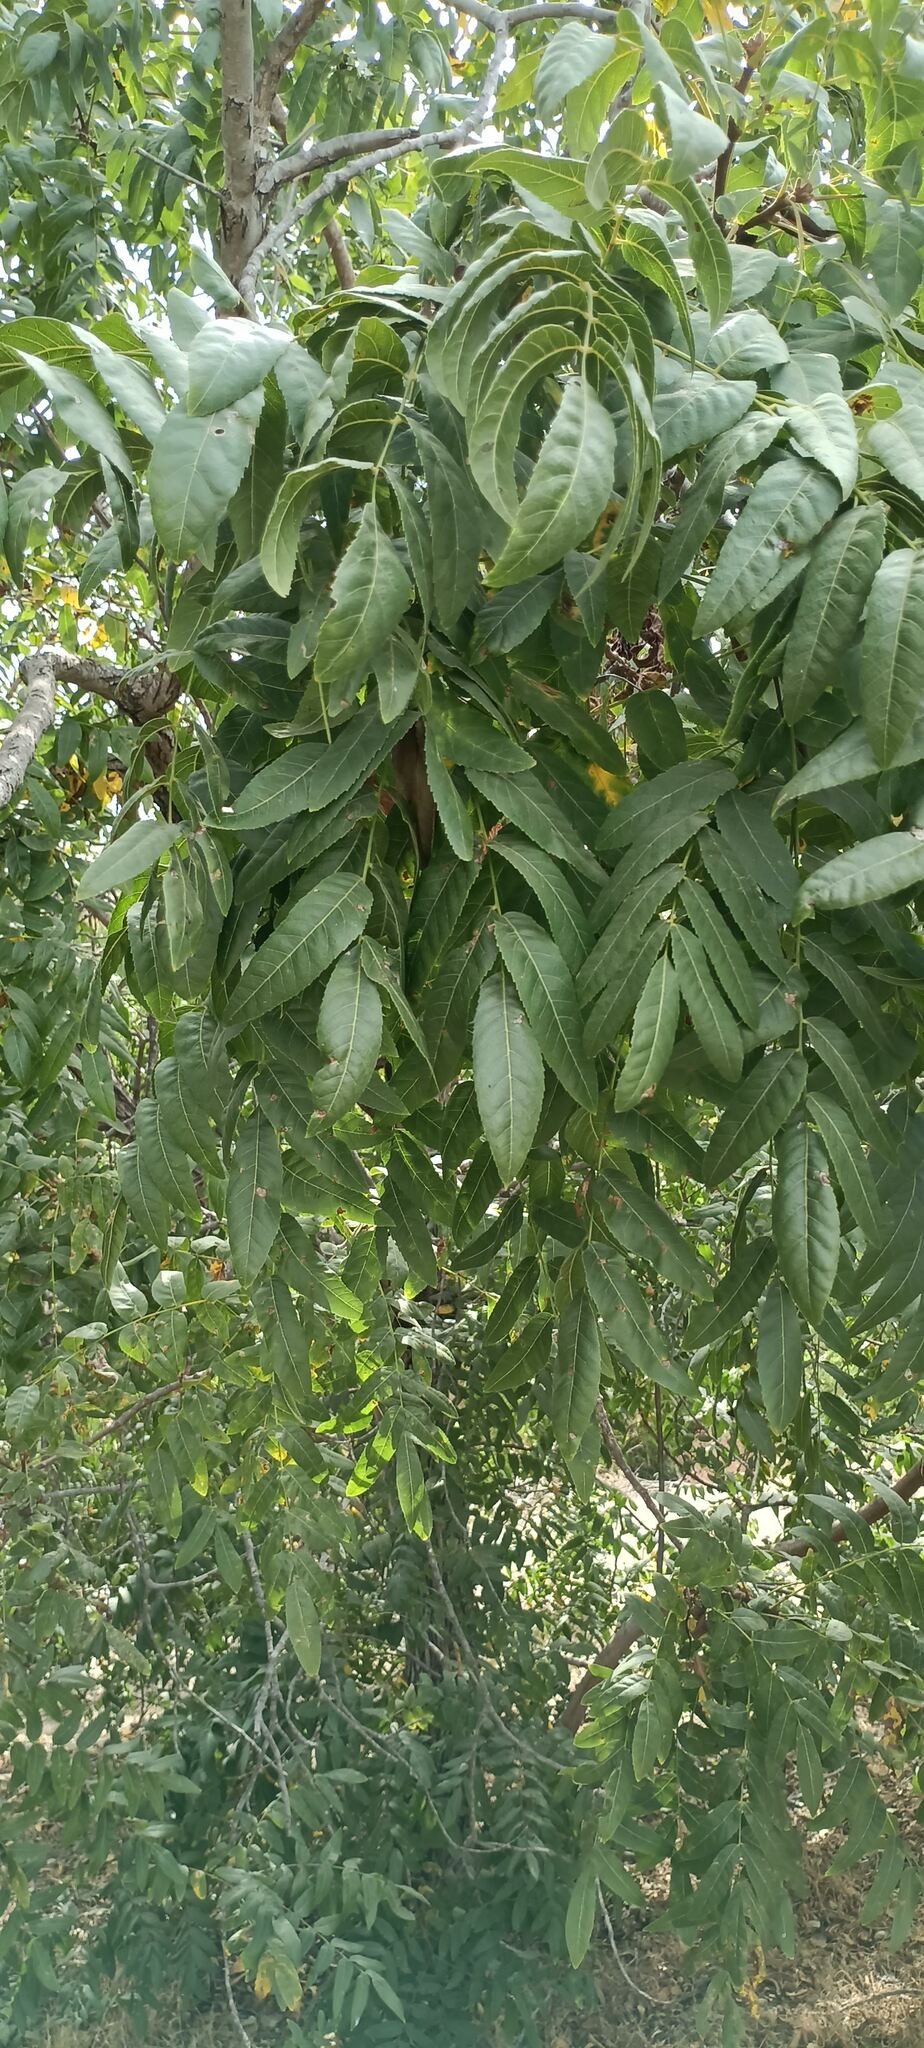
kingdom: Plantae
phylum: Tracheophyta
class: Magnoliopsida
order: Fagales
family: Juglandaceae
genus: Juglans
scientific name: Juglans californica
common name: Southern california black walnut
